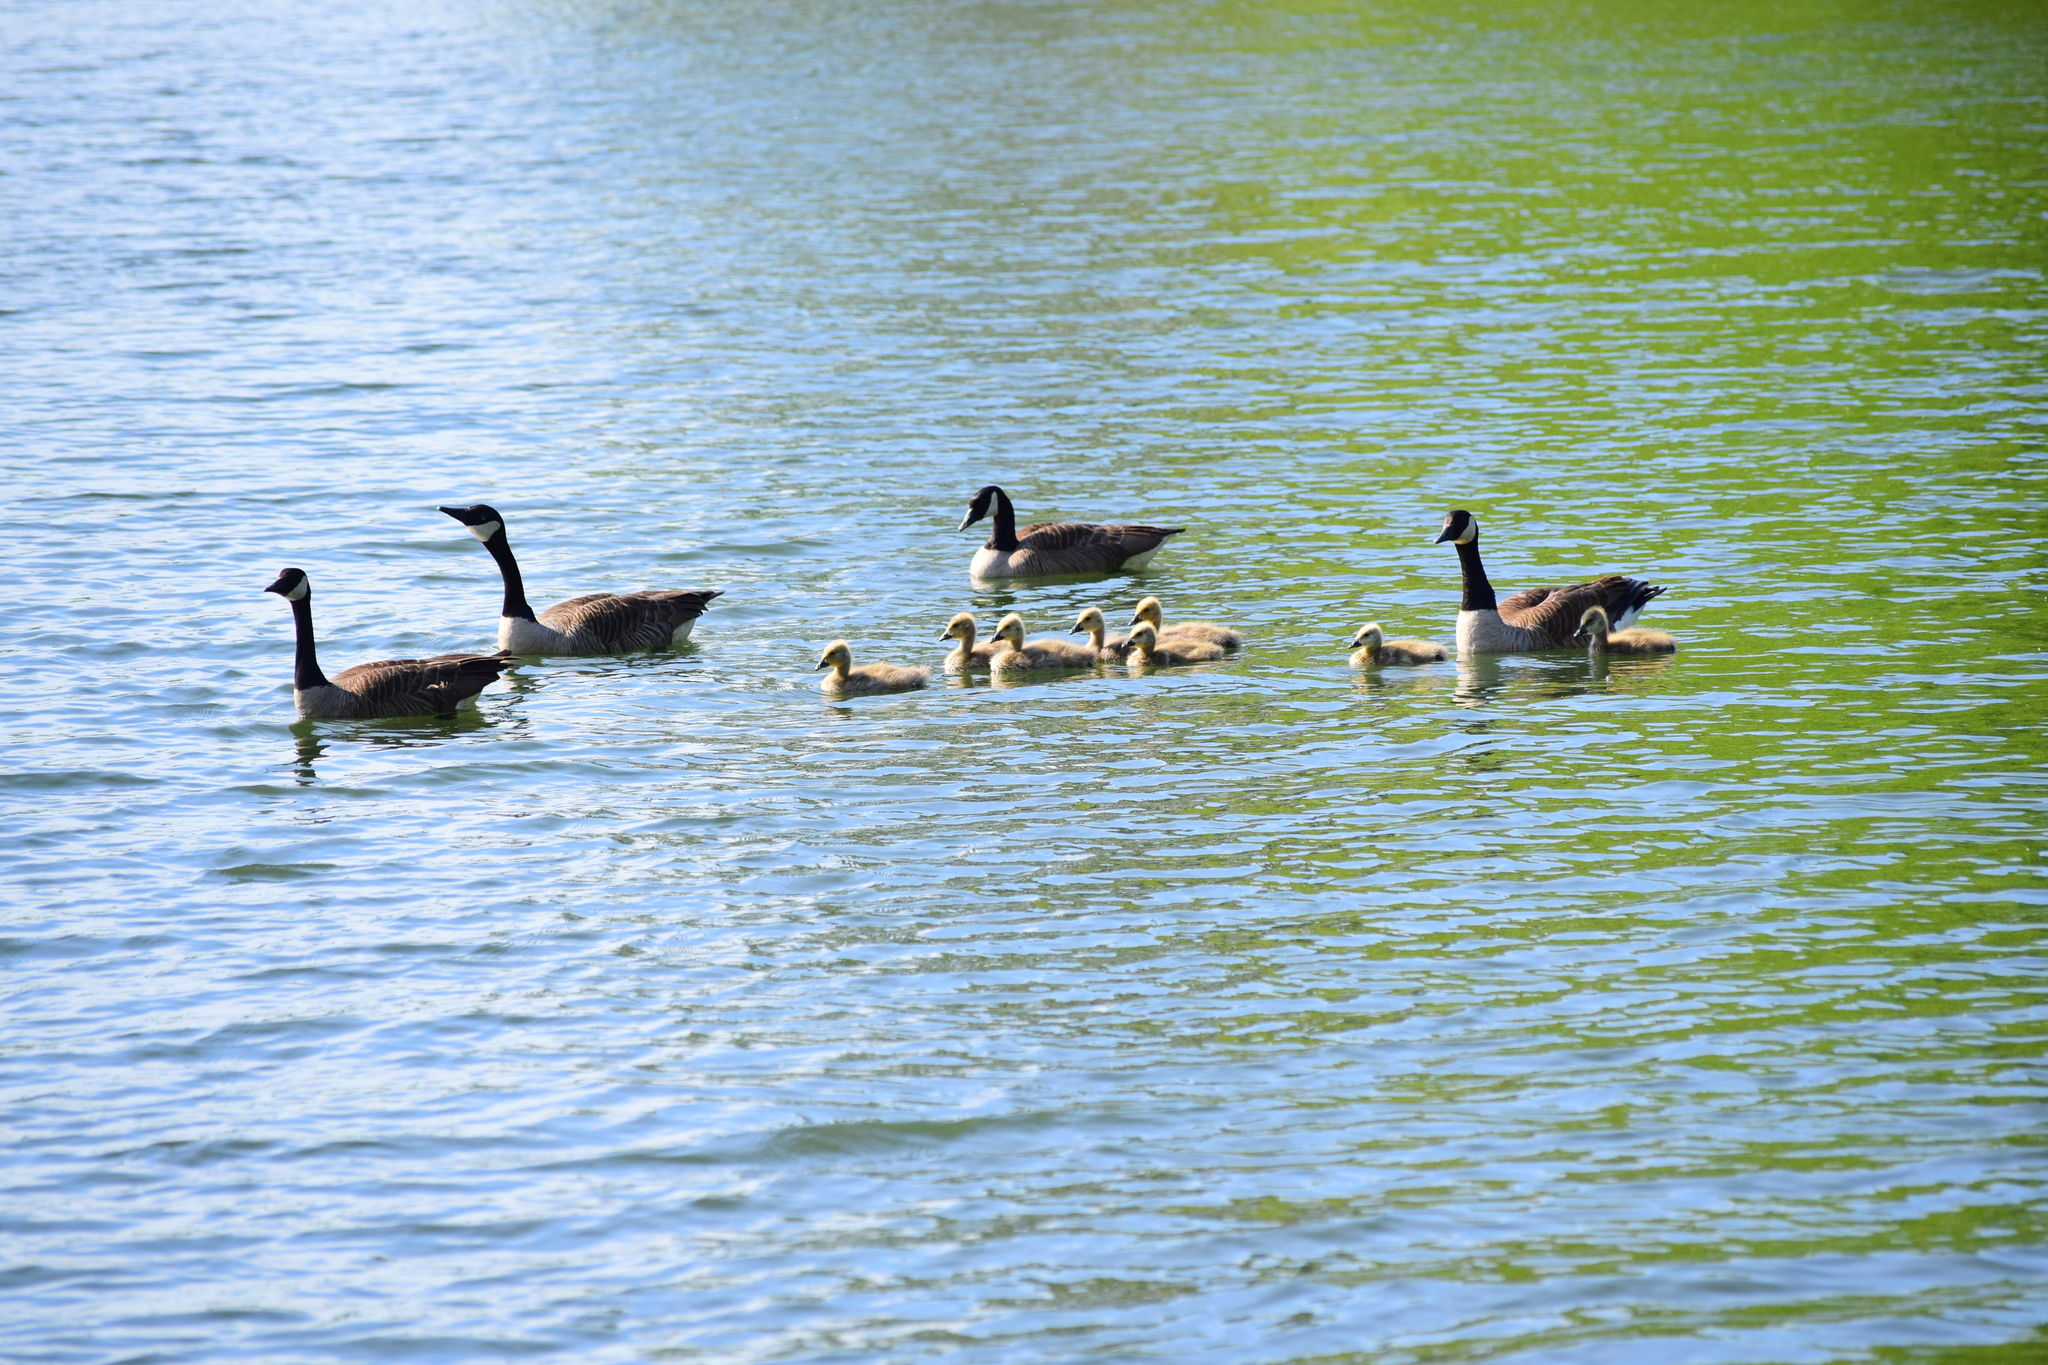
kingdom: Animalia
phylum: Chordata
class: Aves
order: Anseriformes
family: Anatidae
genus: Branta
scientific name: Branta canadensis
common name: Canada goose
